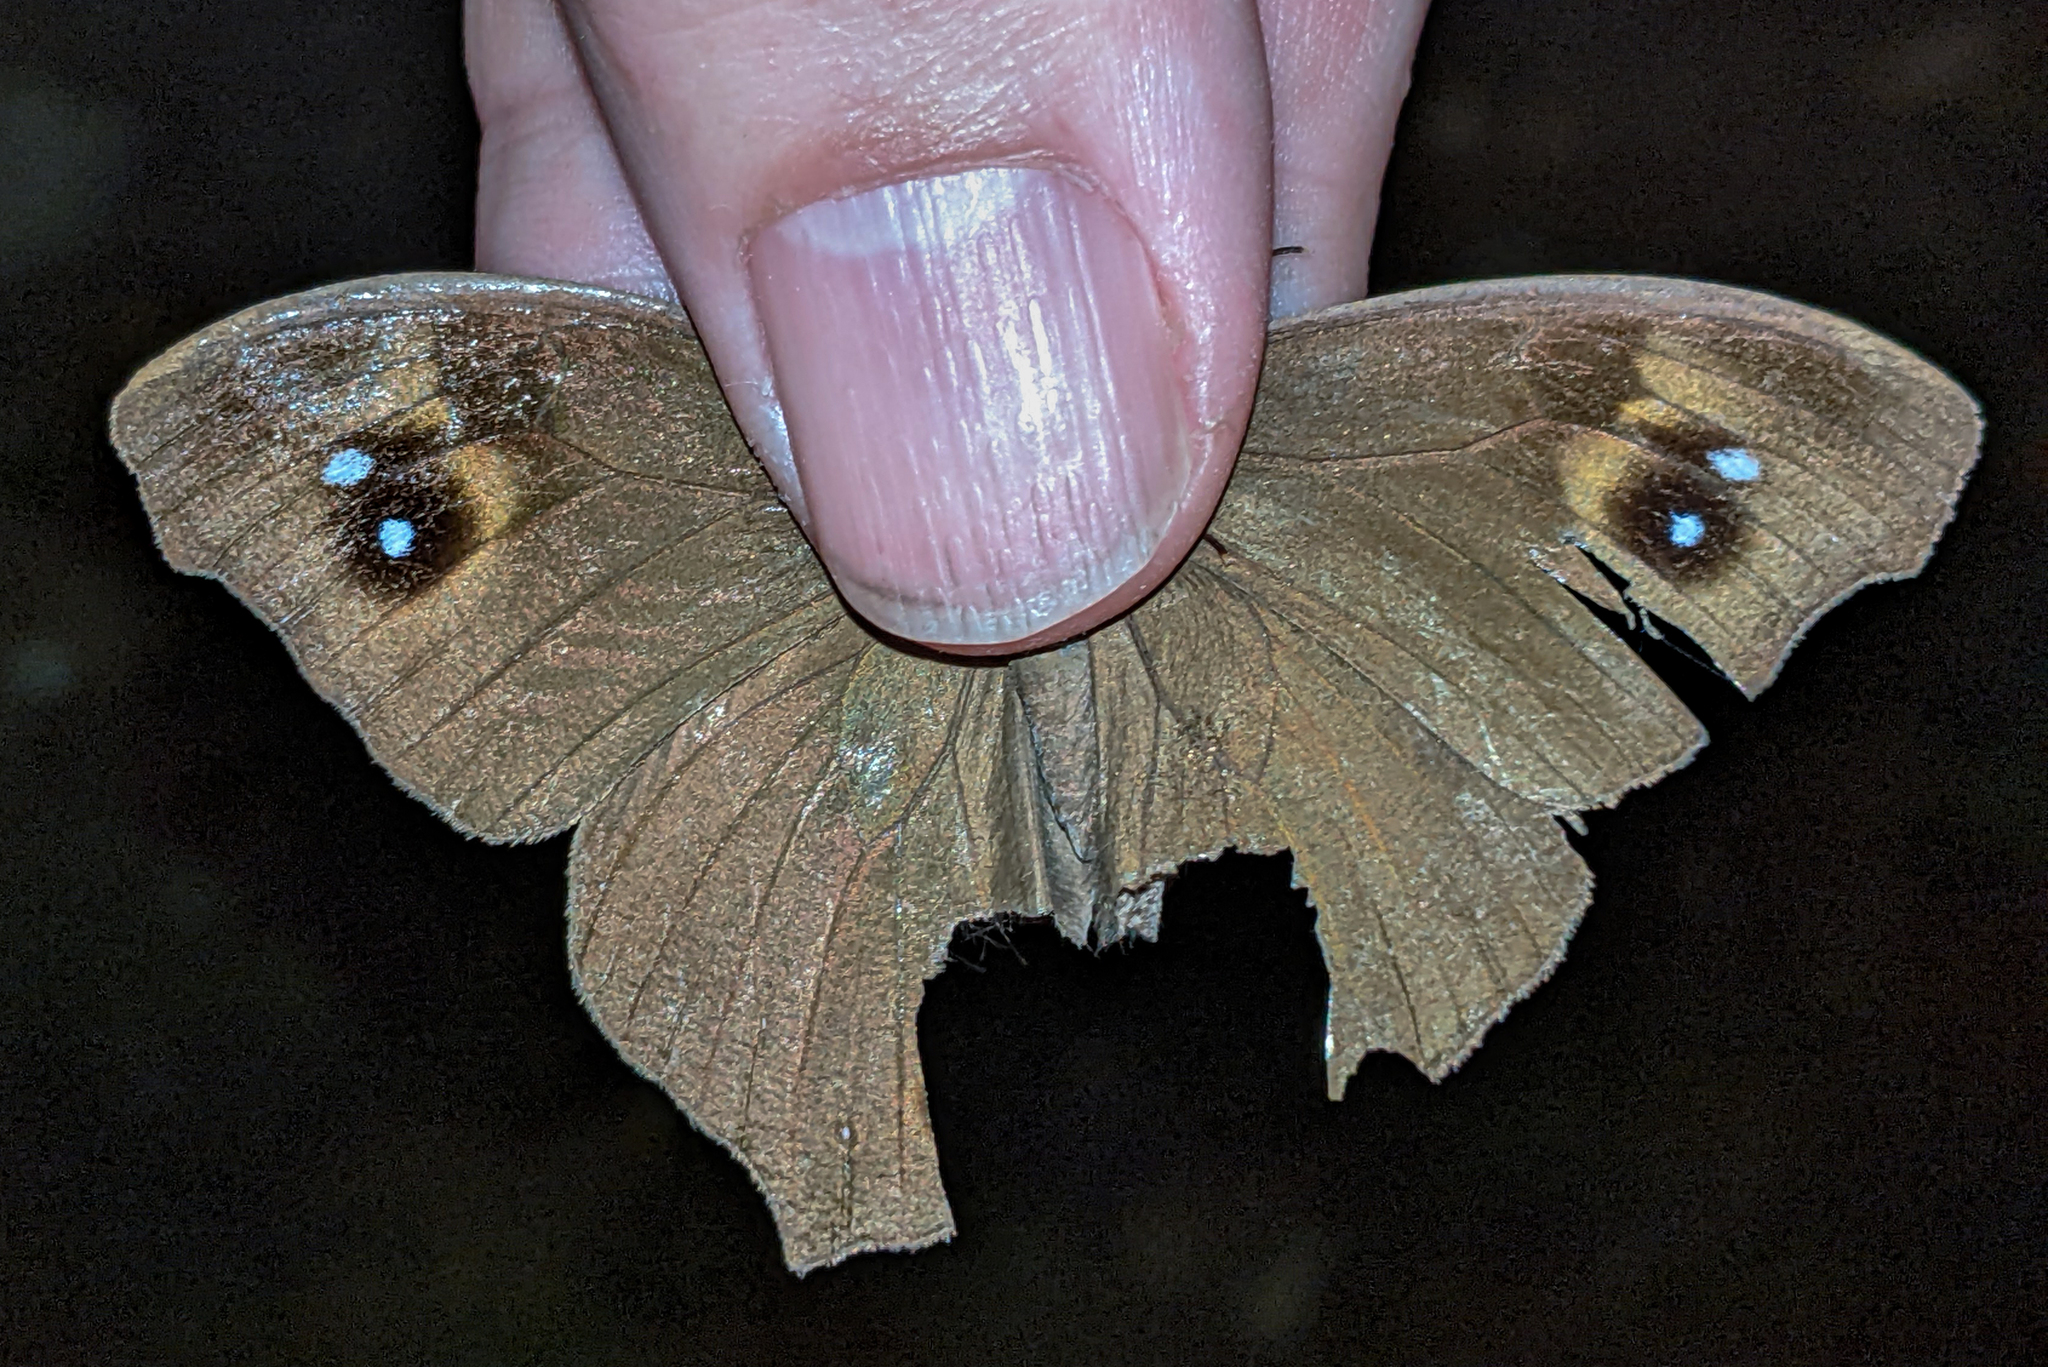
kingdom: Animalia
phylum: Arthropoda
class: Insecta
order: Lepidoptera
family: Nymphalidae
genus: Melanitis
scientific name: Melanitis leda
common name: Twilight brown
